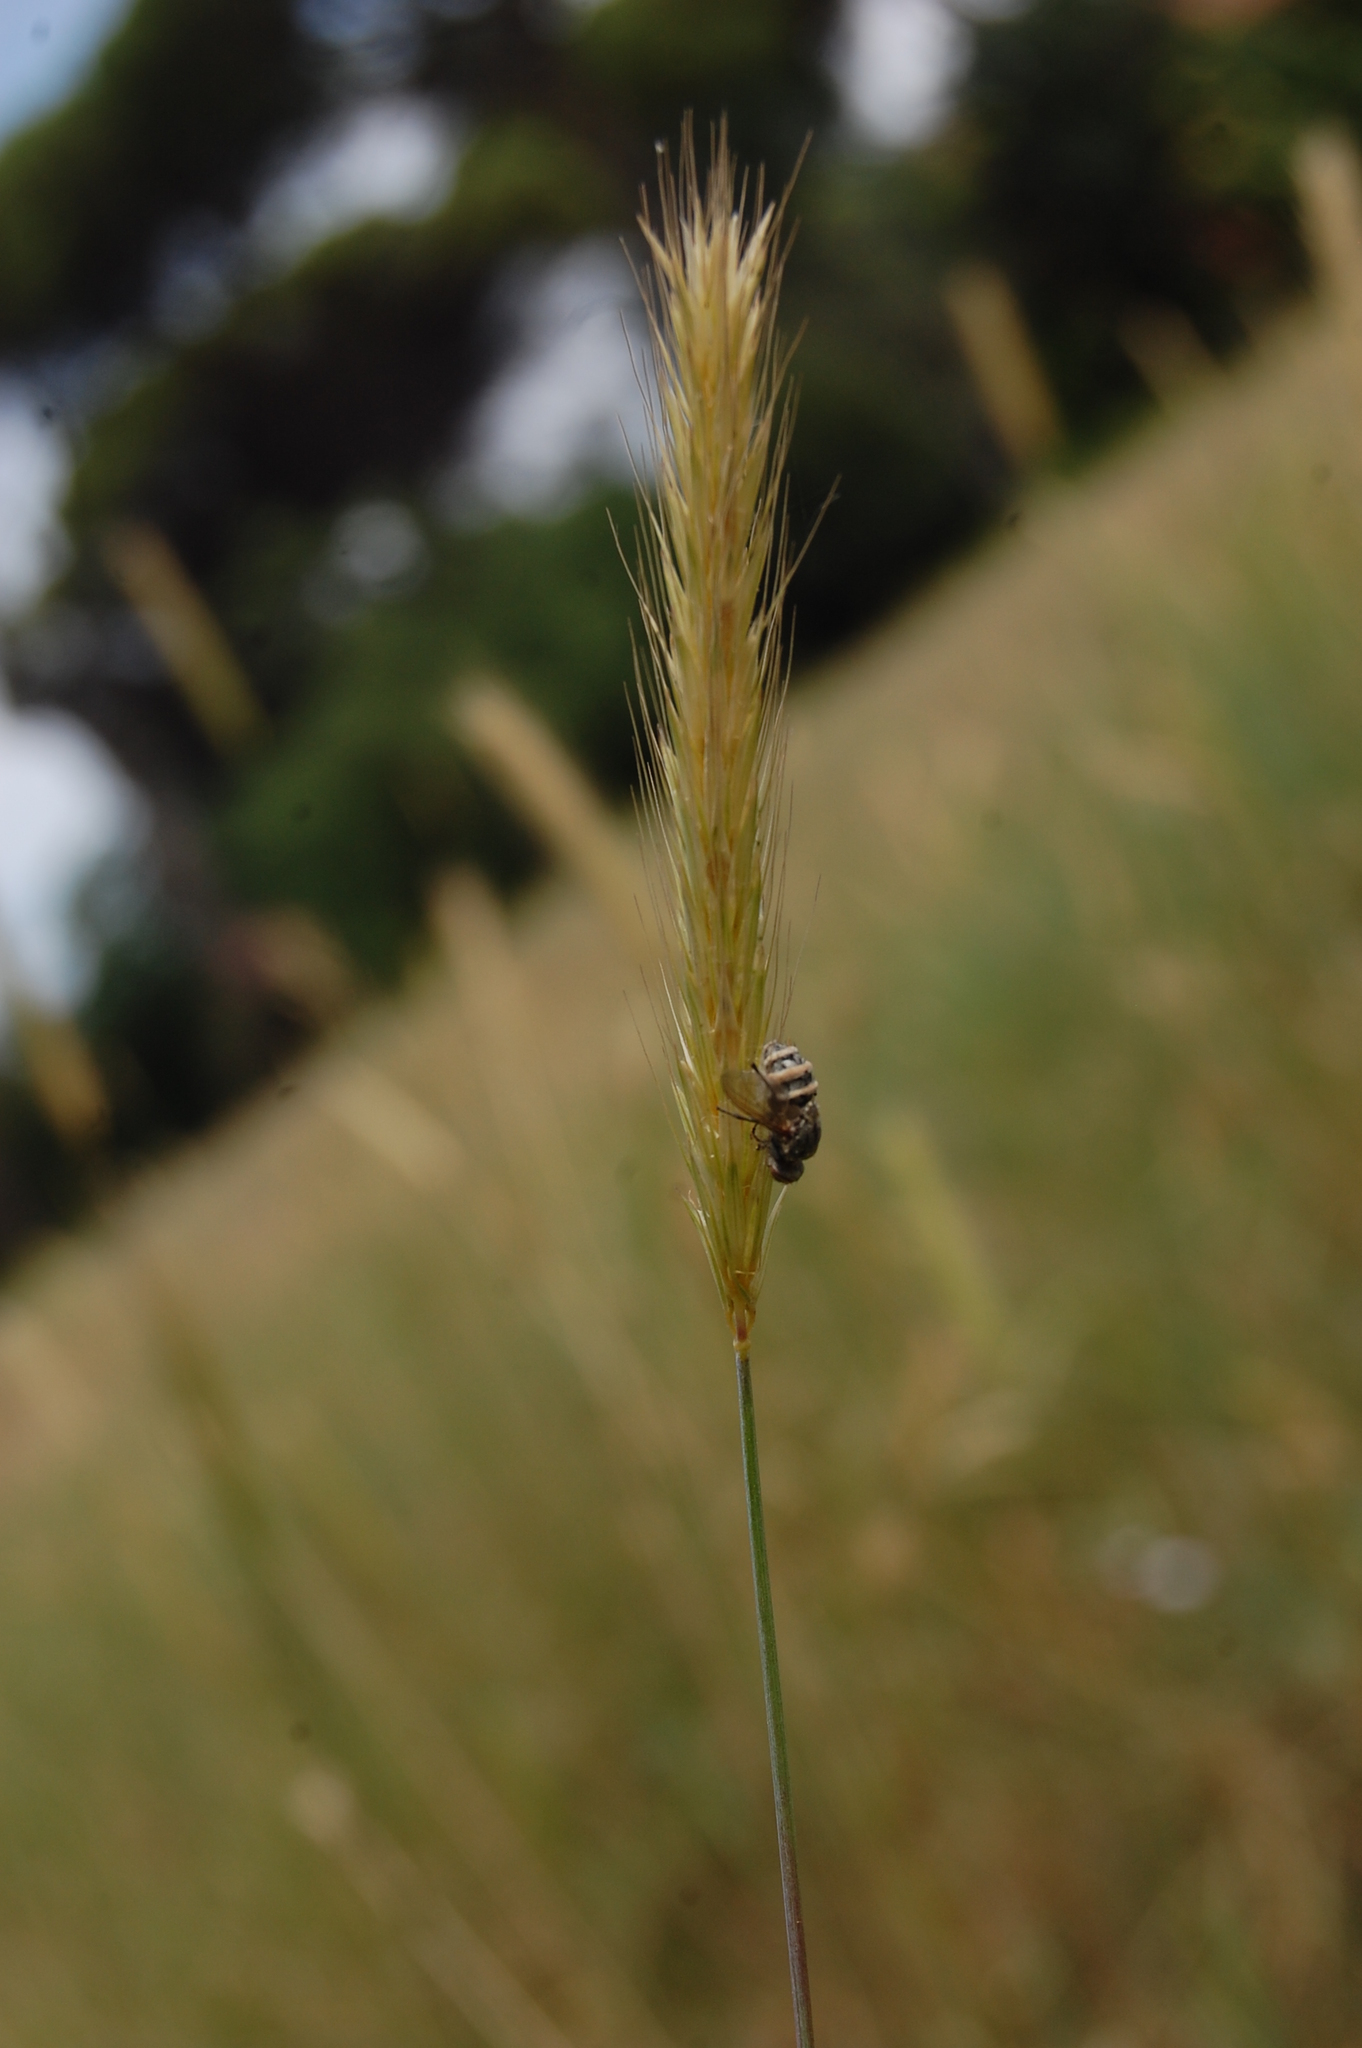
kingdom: Plantae
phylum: Tracheophyta
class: Liliopsida
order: Poales
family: Poaceae
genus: Hordeum
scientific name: Hordeum bulbosum
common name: Bulbous barley
